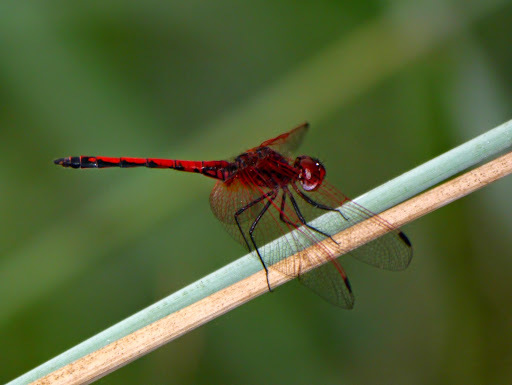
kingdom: Animalia
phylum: Arthropoda
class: Insecta
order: Odonata
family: Libellulidae
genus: Trithemis
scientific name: Trithemis arteriosa
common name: Red-veined dropwing
